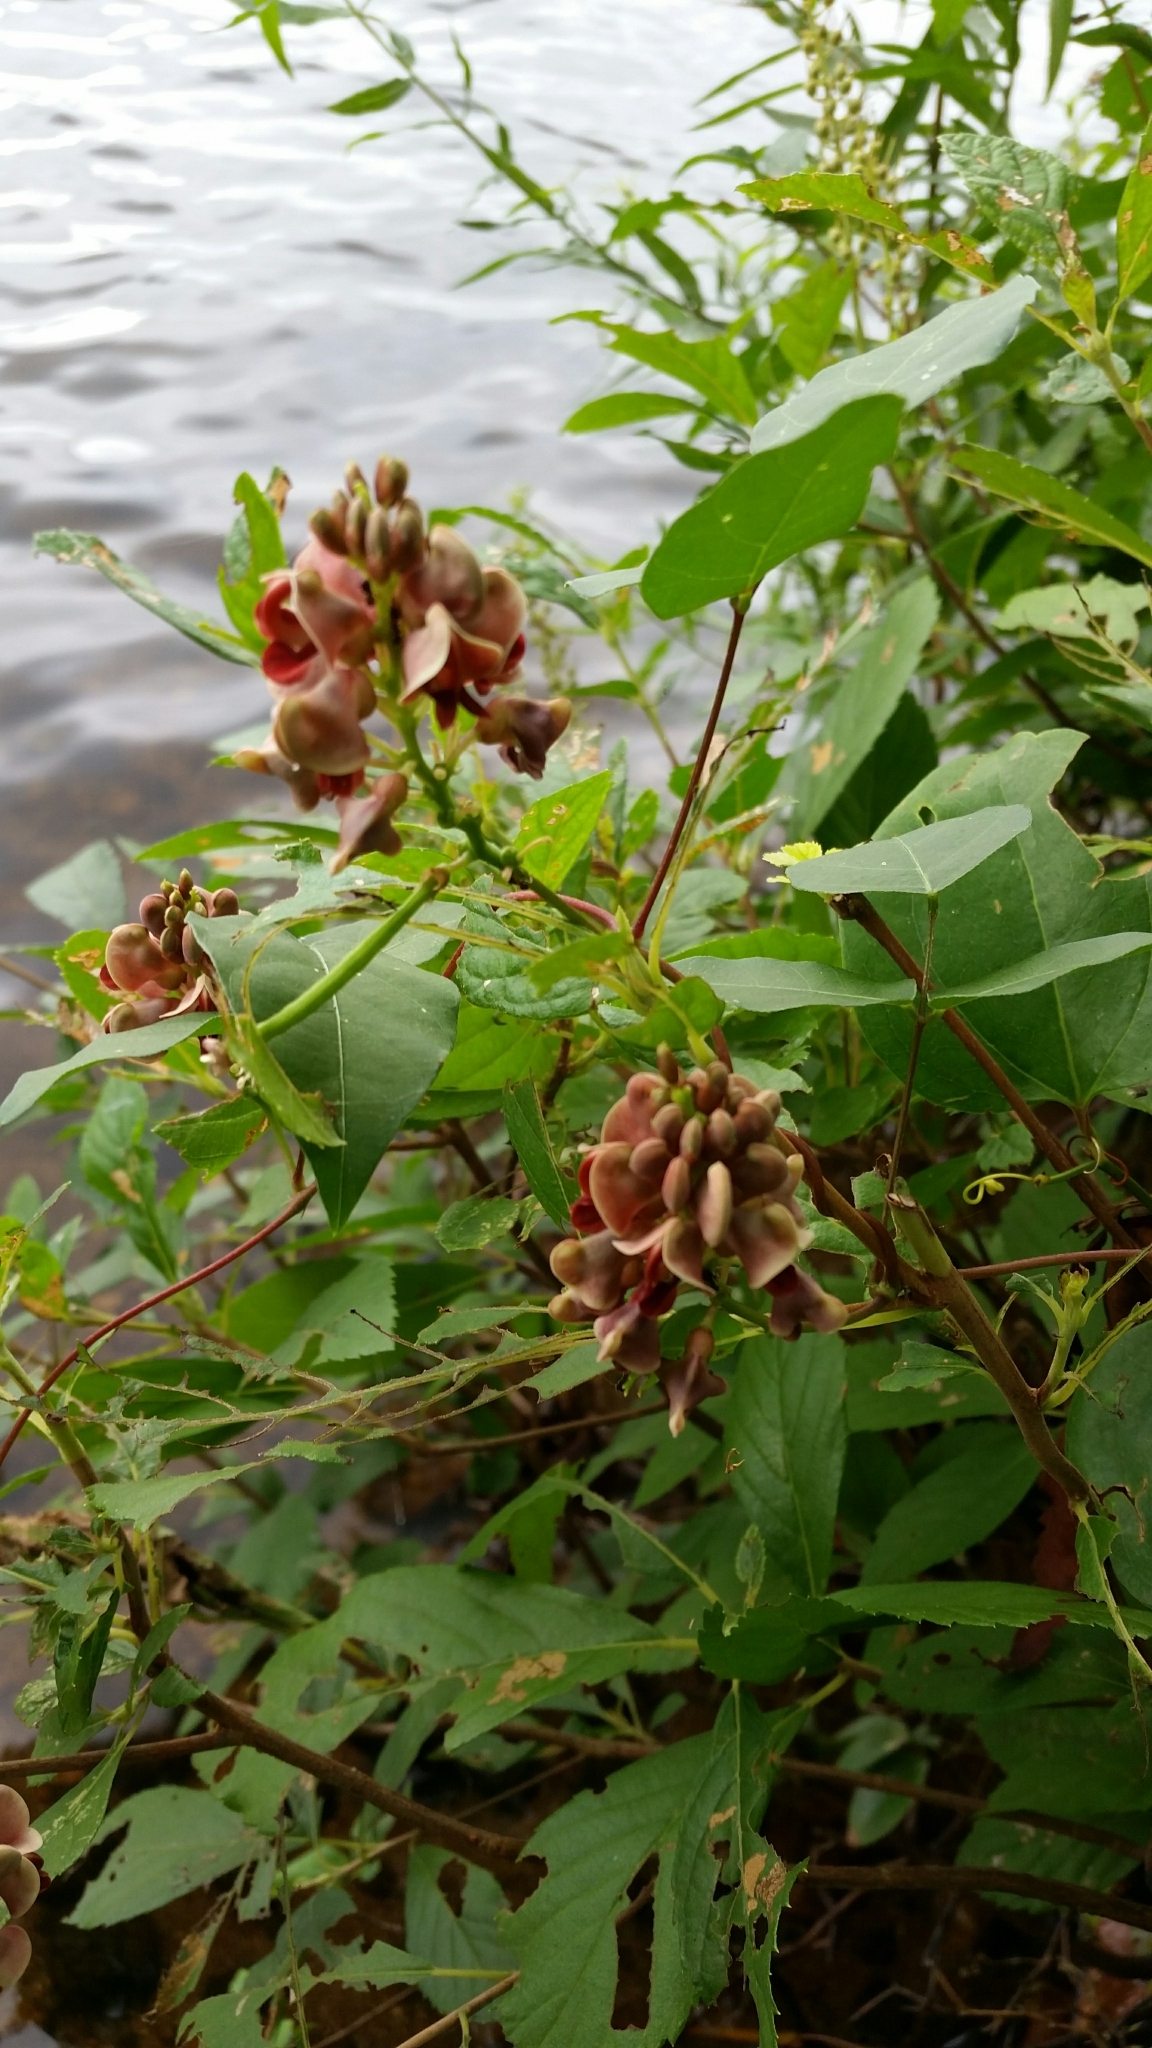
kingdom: Plantae
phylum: Tracheophyta
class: Magnoliopsida
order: Fabales
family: Fabaceae
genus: Apios
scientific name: Apios americana
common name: American potato-bean
